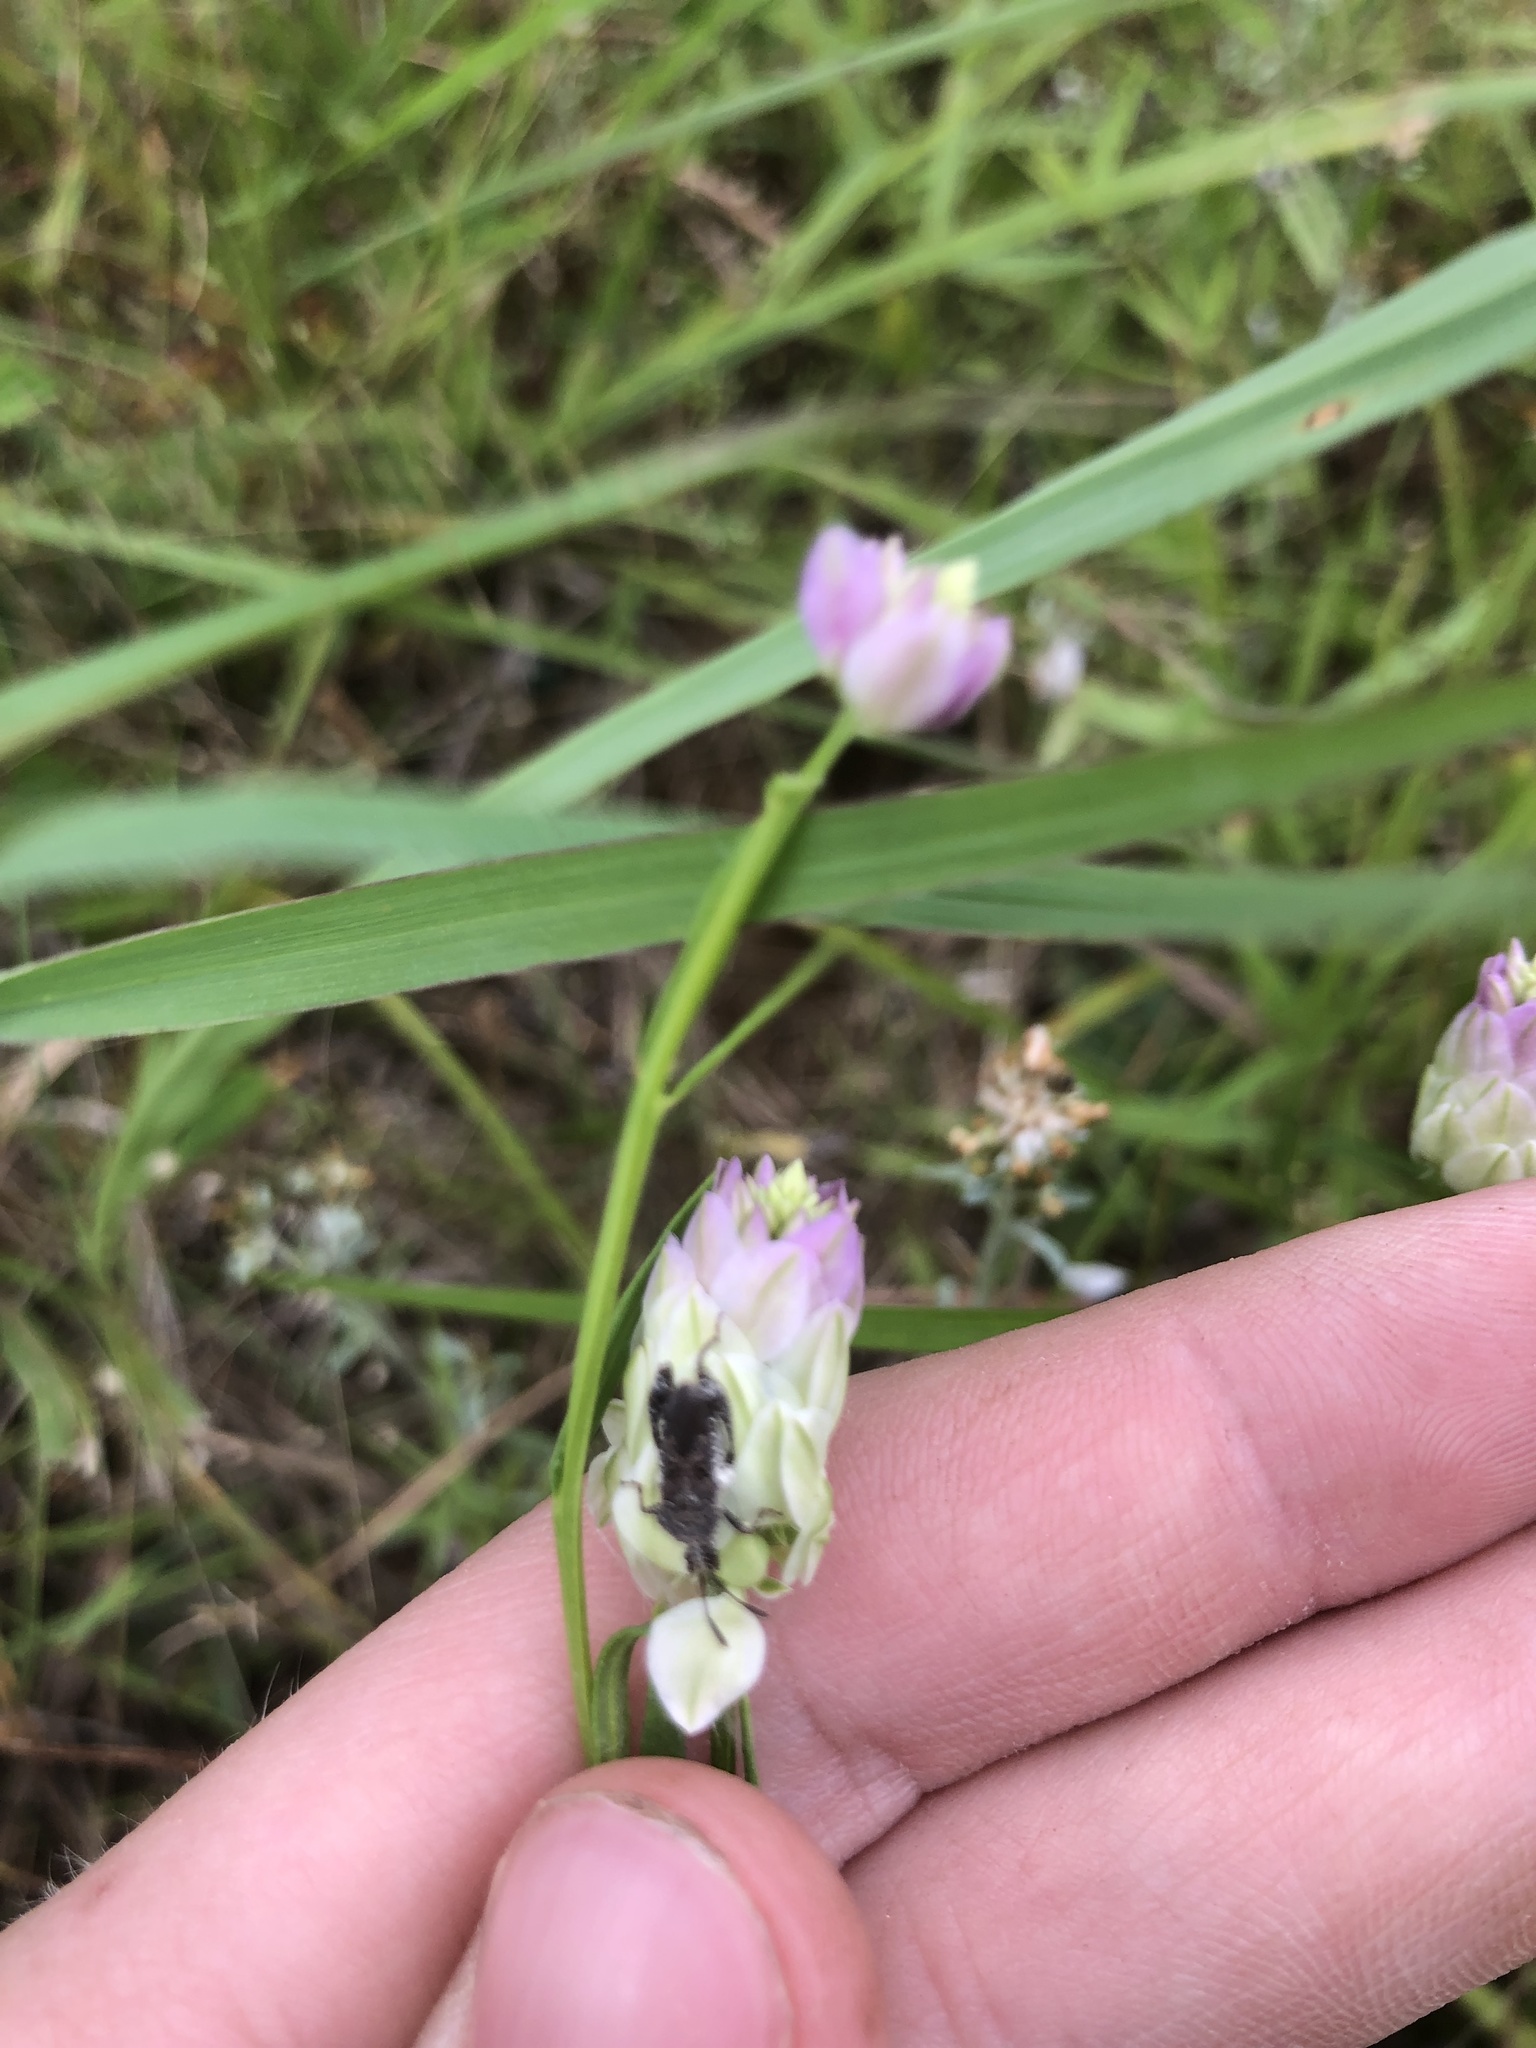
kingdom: Plantae
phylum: Tracheophyta
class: Magnoliopsida
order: Fabales
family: Polygalaceae
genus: Polygala
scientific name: Polygala sanguinea
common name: Blood milkwort
